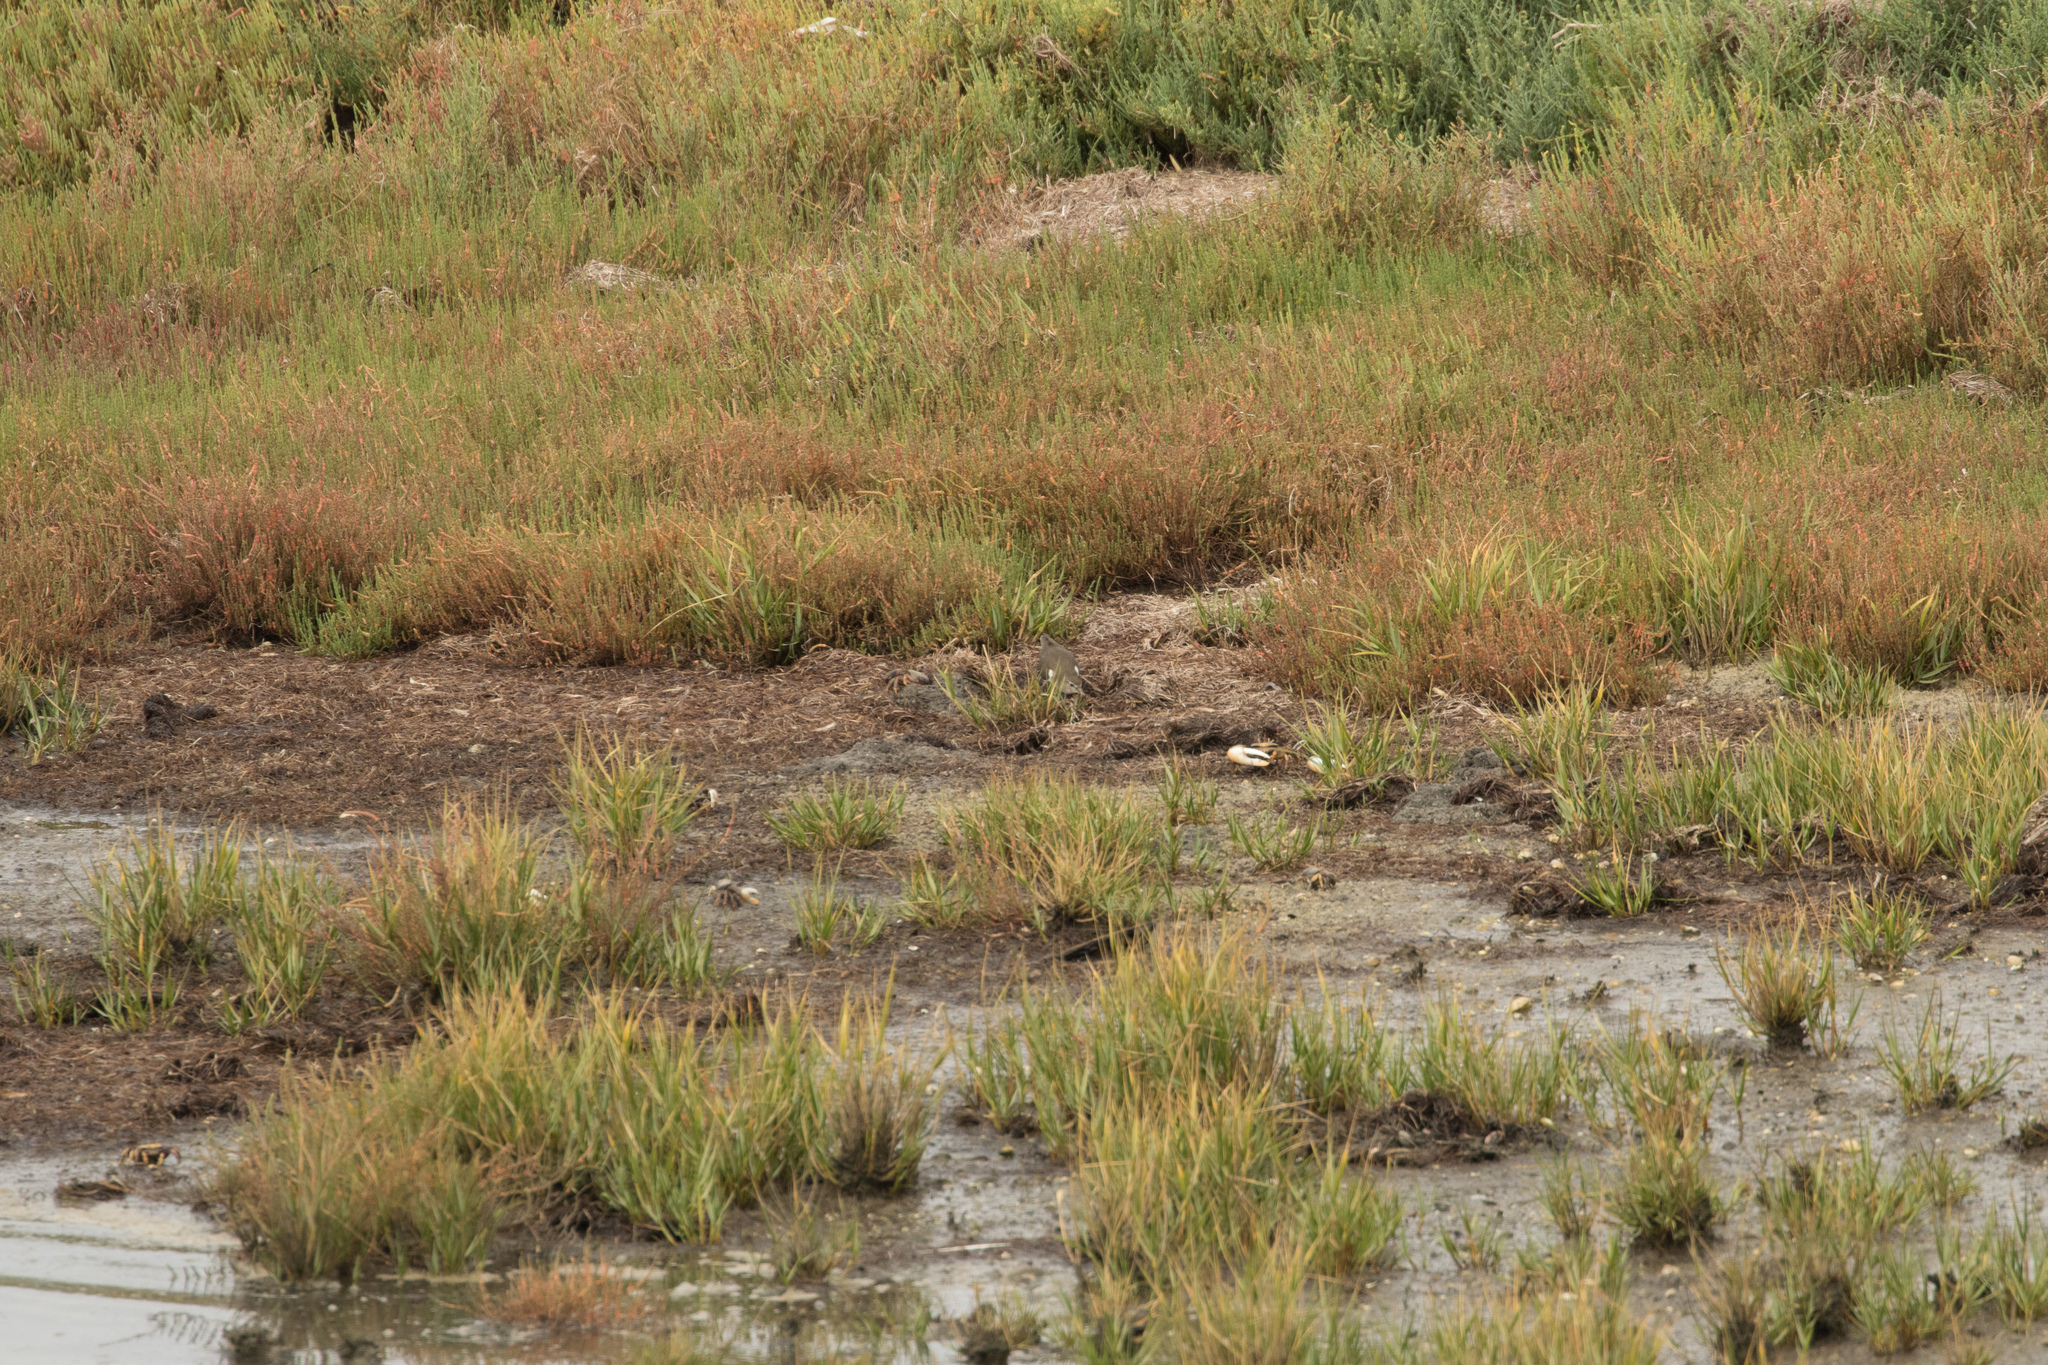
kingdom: Animalia
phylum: Chordata
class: Aves
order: Charadriiformes
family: Scolopacidae
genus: Actitis
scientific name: Actitis hypoleucos
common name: Common sandpiper
